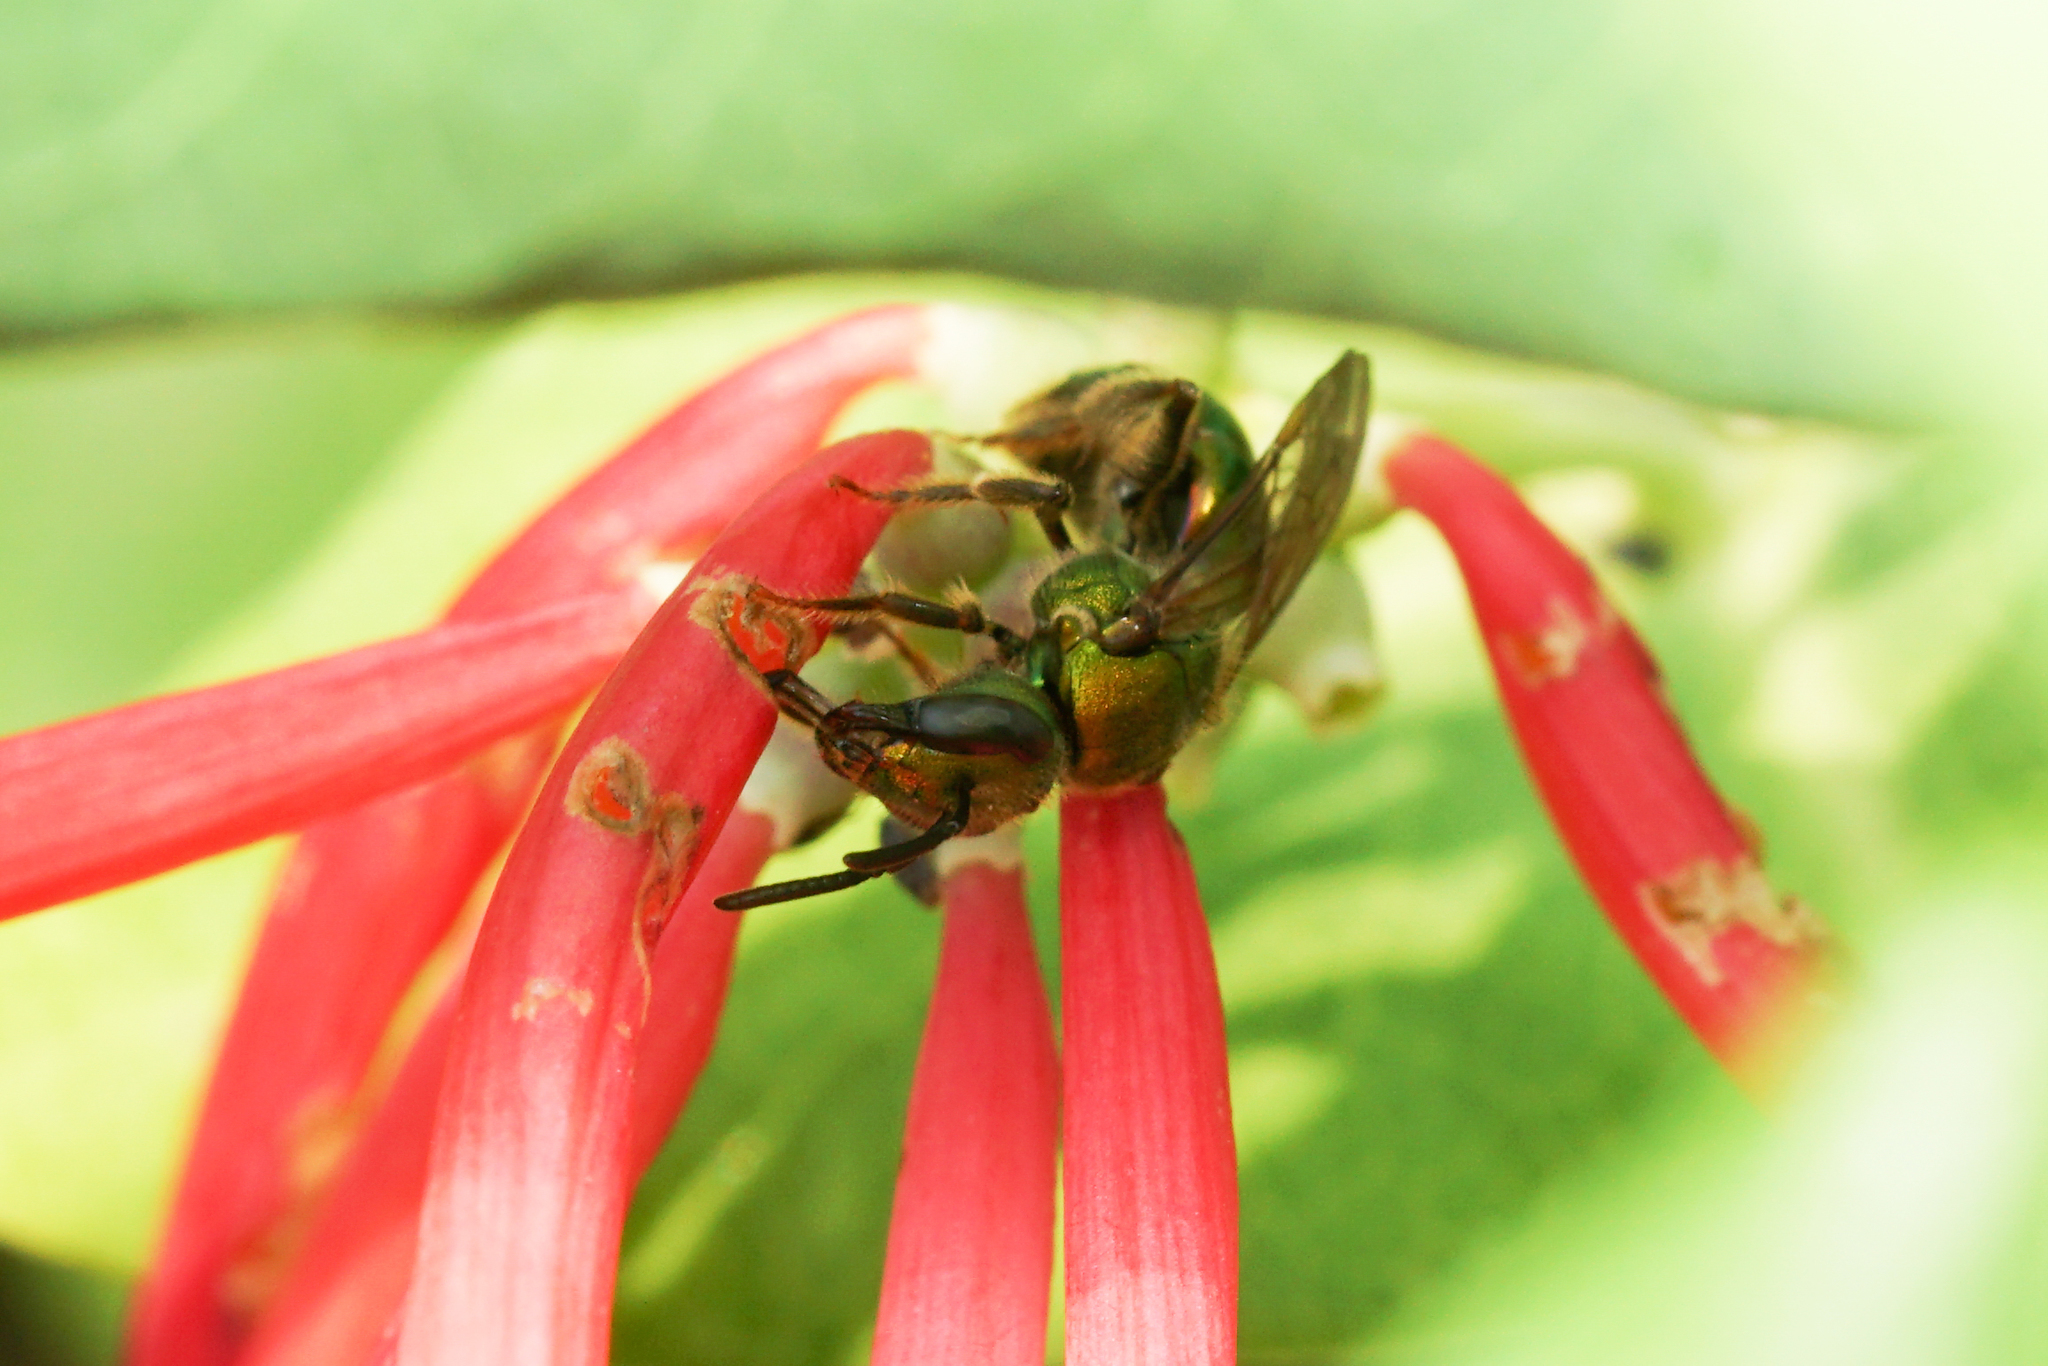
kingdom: Animalia
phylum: Arthropoda
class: Insecta
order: Hymenoptera
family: Halictidae
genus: Augochlora
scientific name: Augochlora pura
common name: Pure green sweat bee
